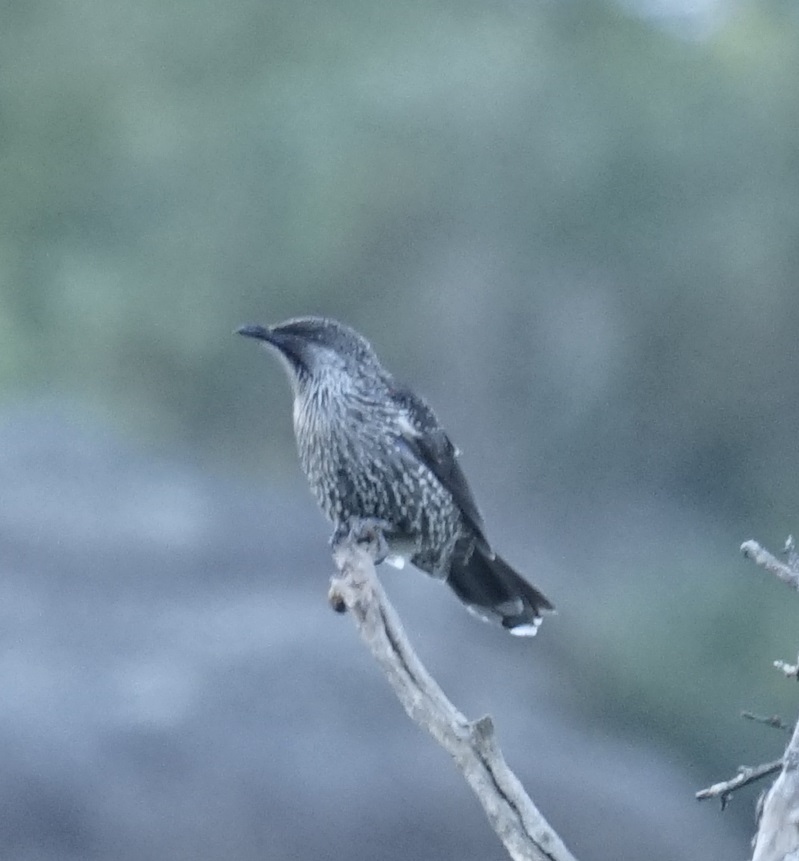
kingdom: Animalia
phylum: Chordata
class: Aves
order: Passeriformes
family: Meliphagidae
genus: Anthochaera
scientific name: Anthochaera chrysoptera
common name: Little wattlebird
